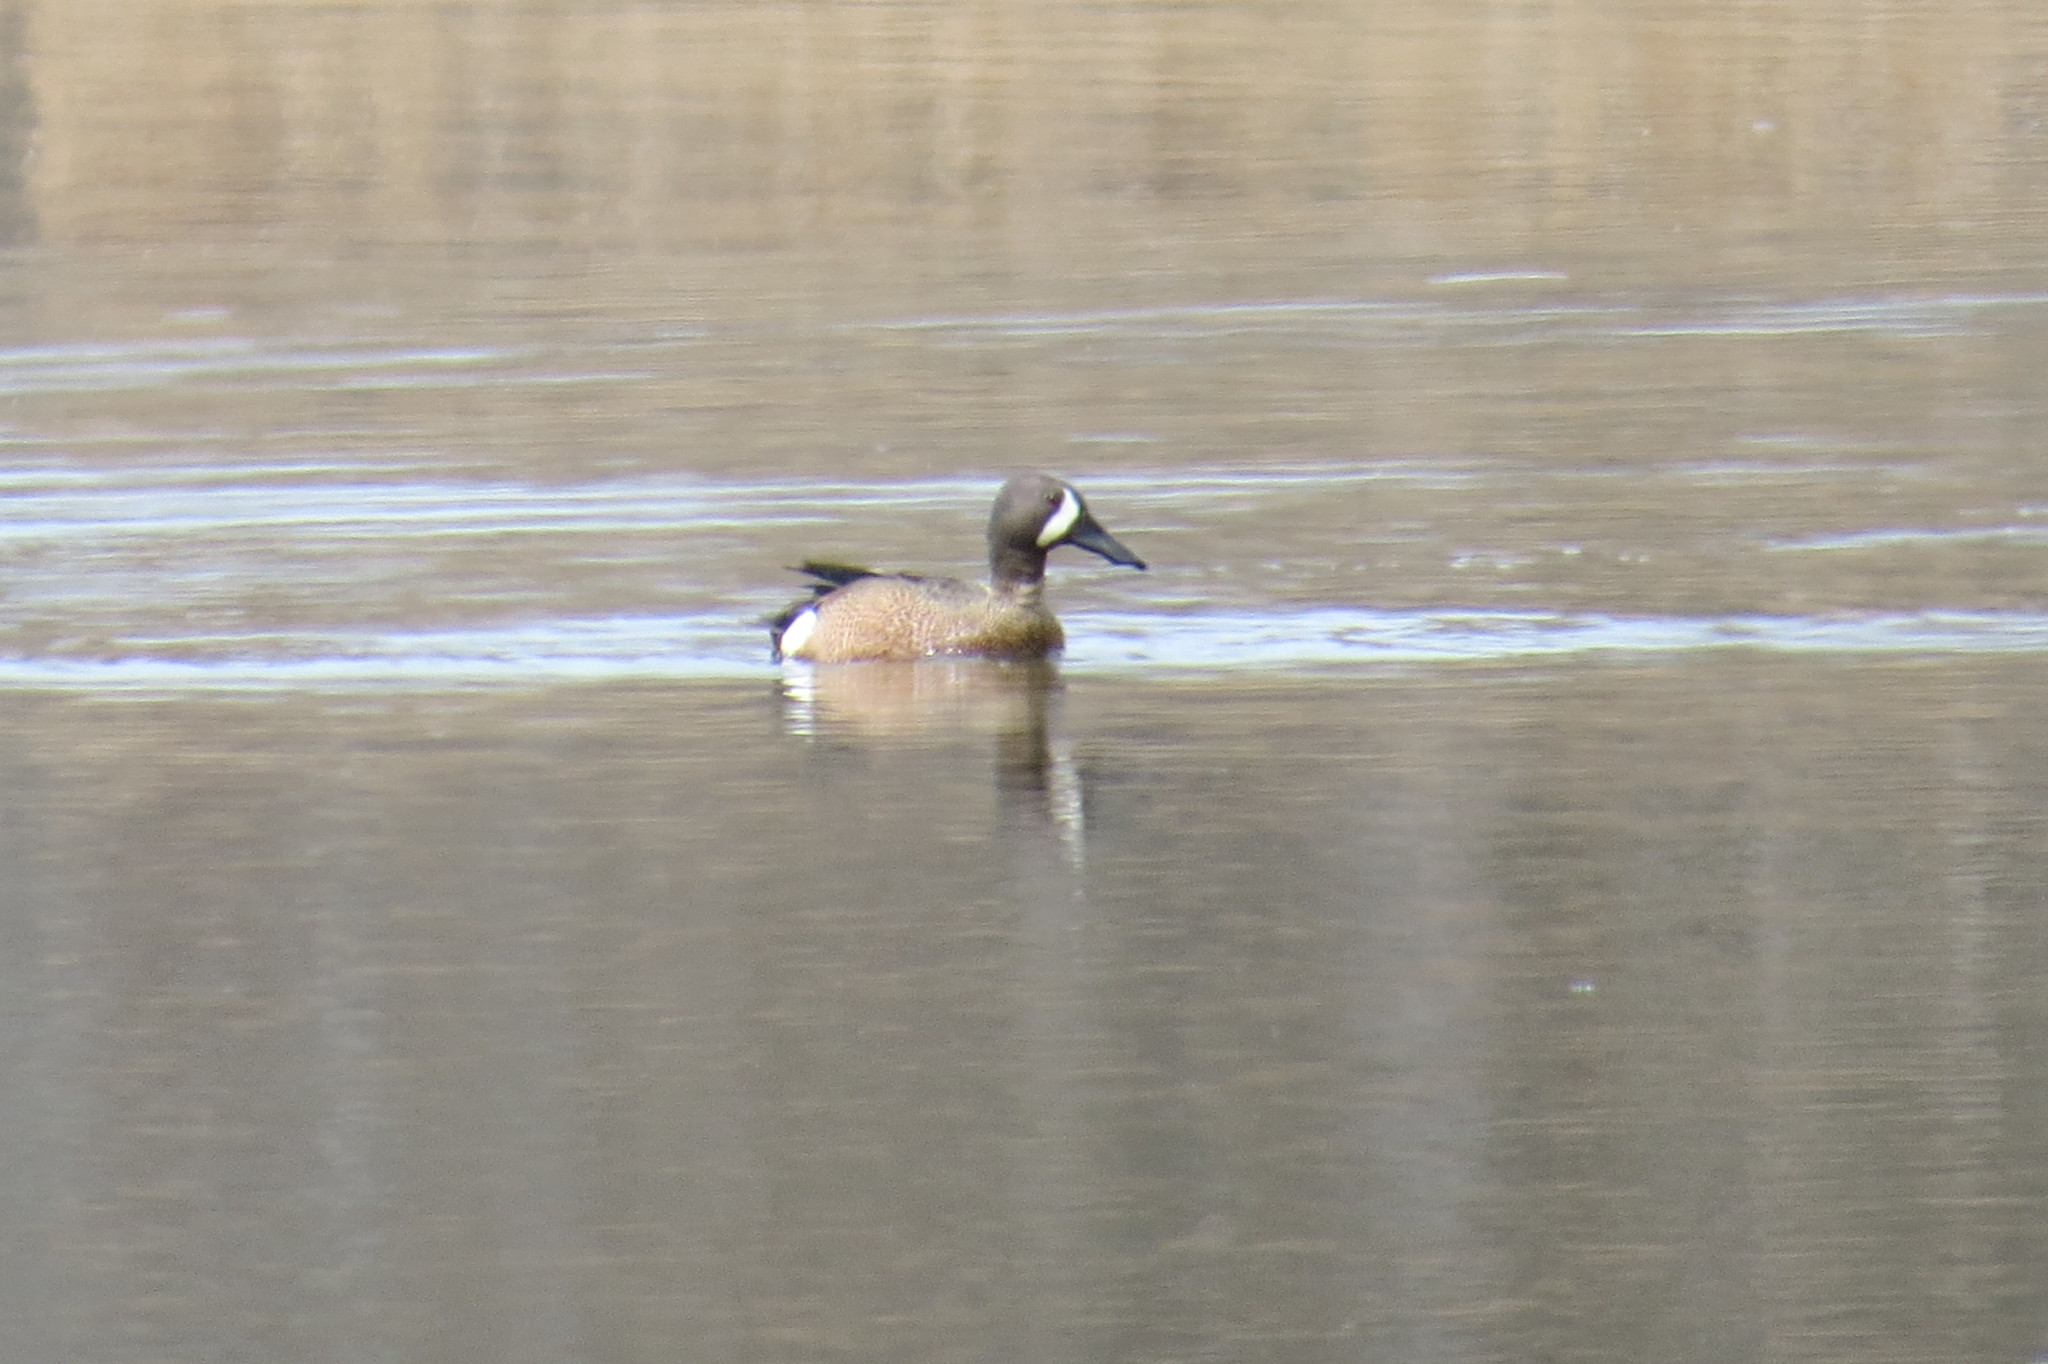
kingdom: Animalia
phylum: Chordata
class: Aves
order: Anseriformes
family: Anatidae
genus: Spatula
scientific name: Spatula discors
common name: Blue-winged teal
